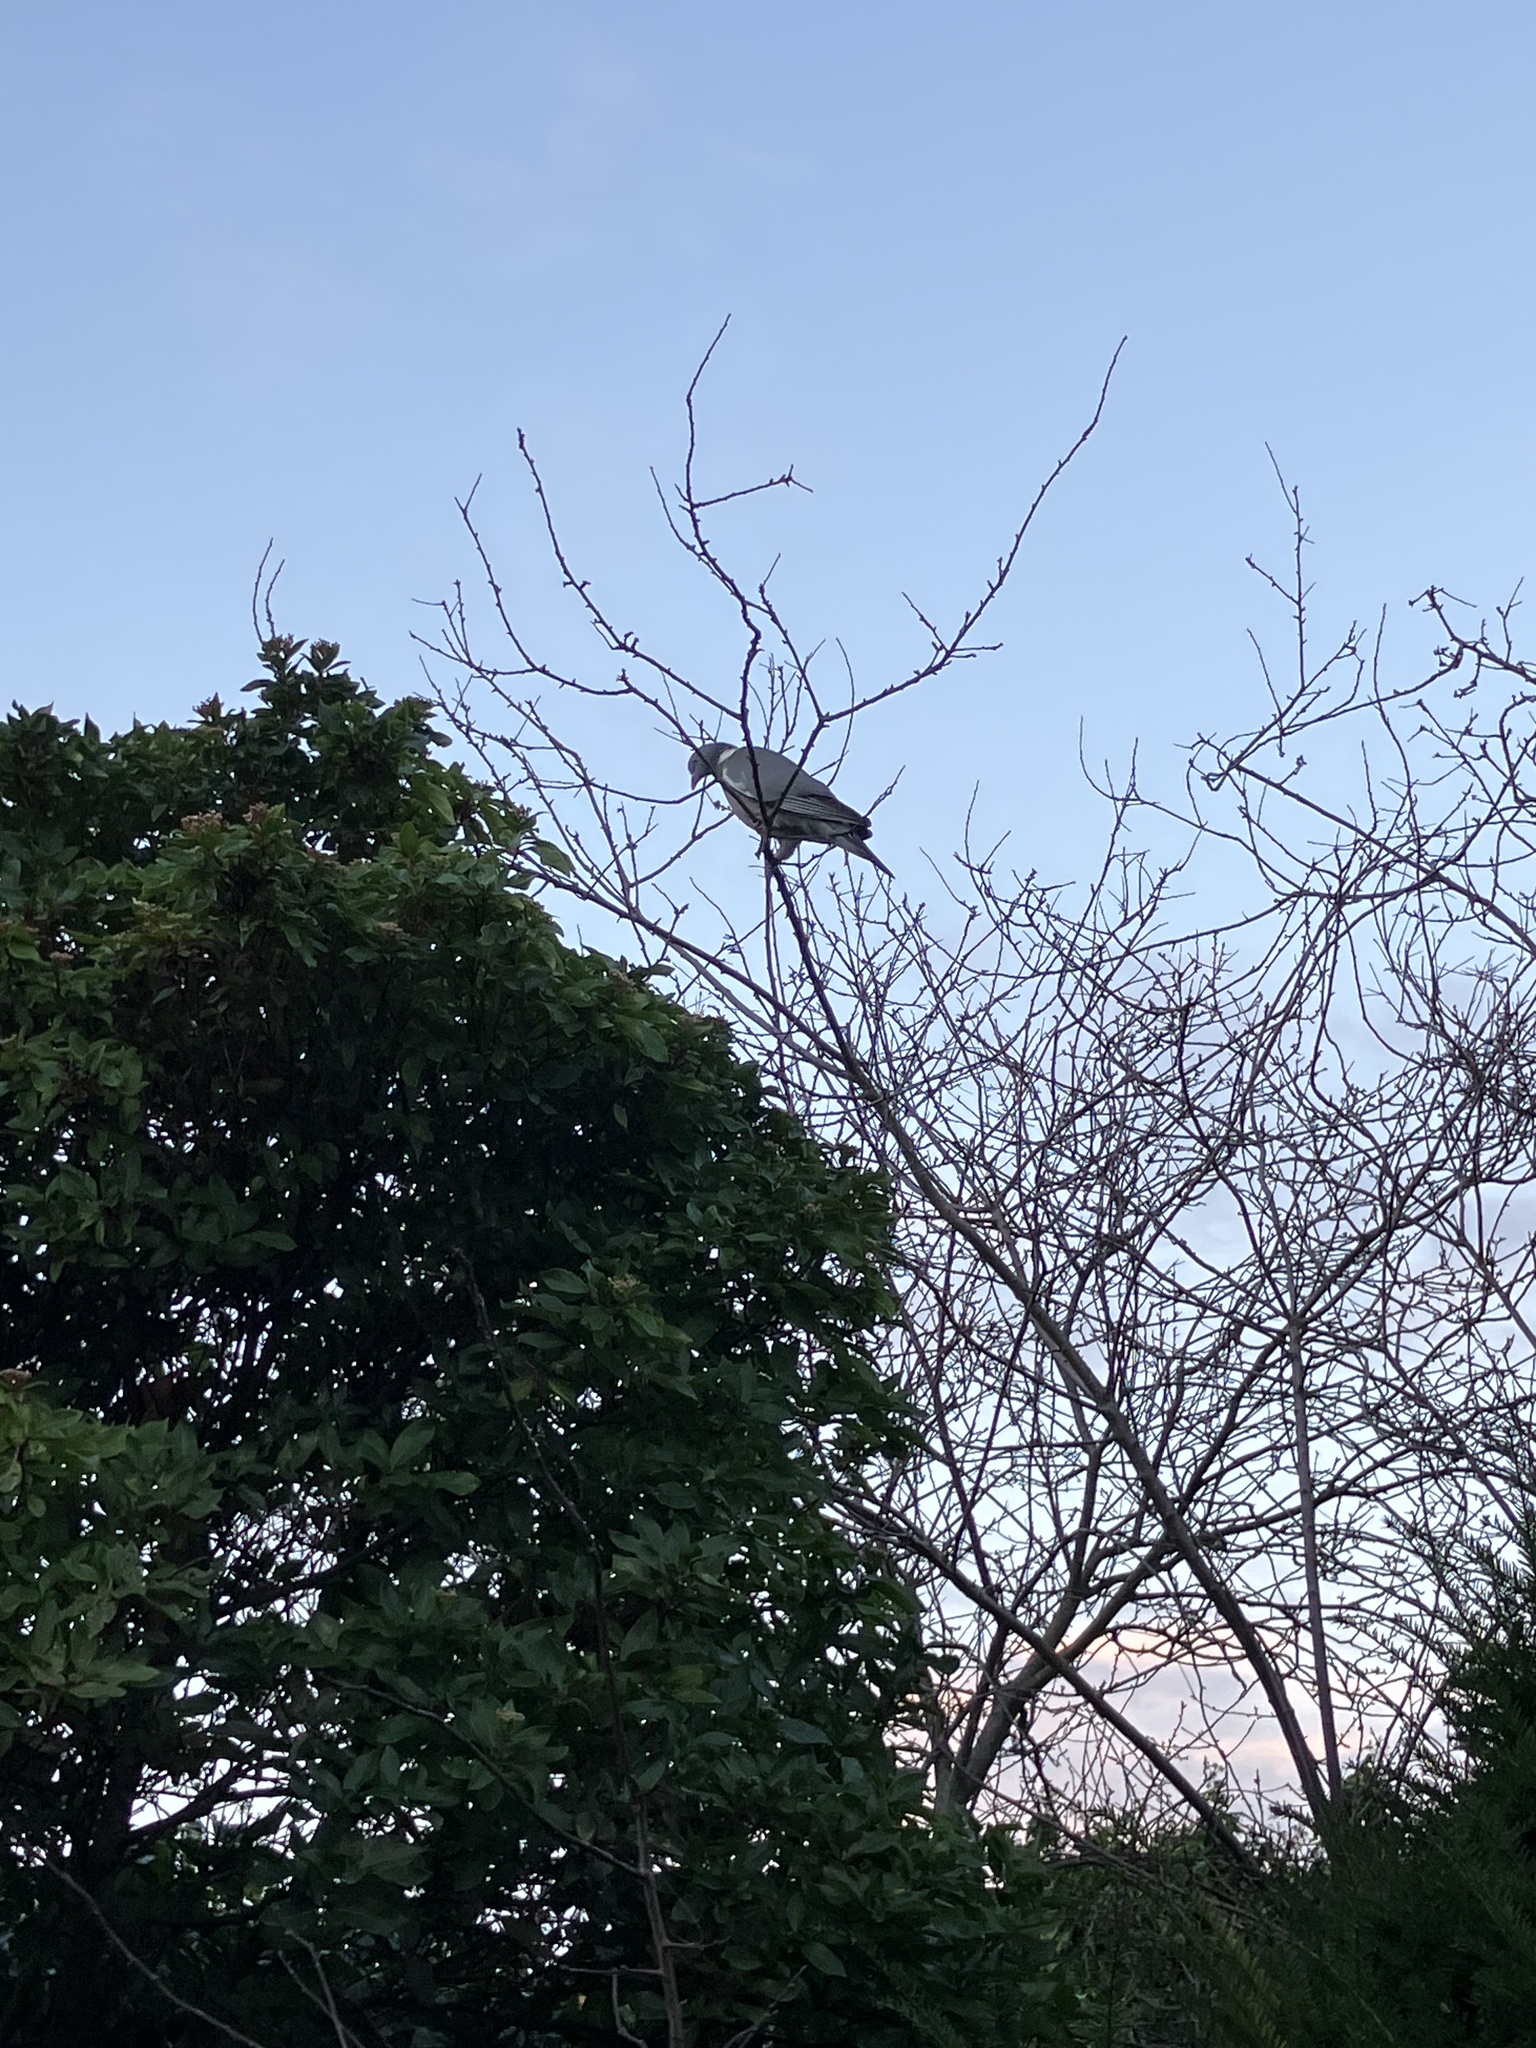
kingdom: Animalia
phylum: Chordata
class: Aves
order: Columbiformes
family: Columbidae
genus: Columba
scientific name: Columba palumbus
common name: Common wood pigeon
